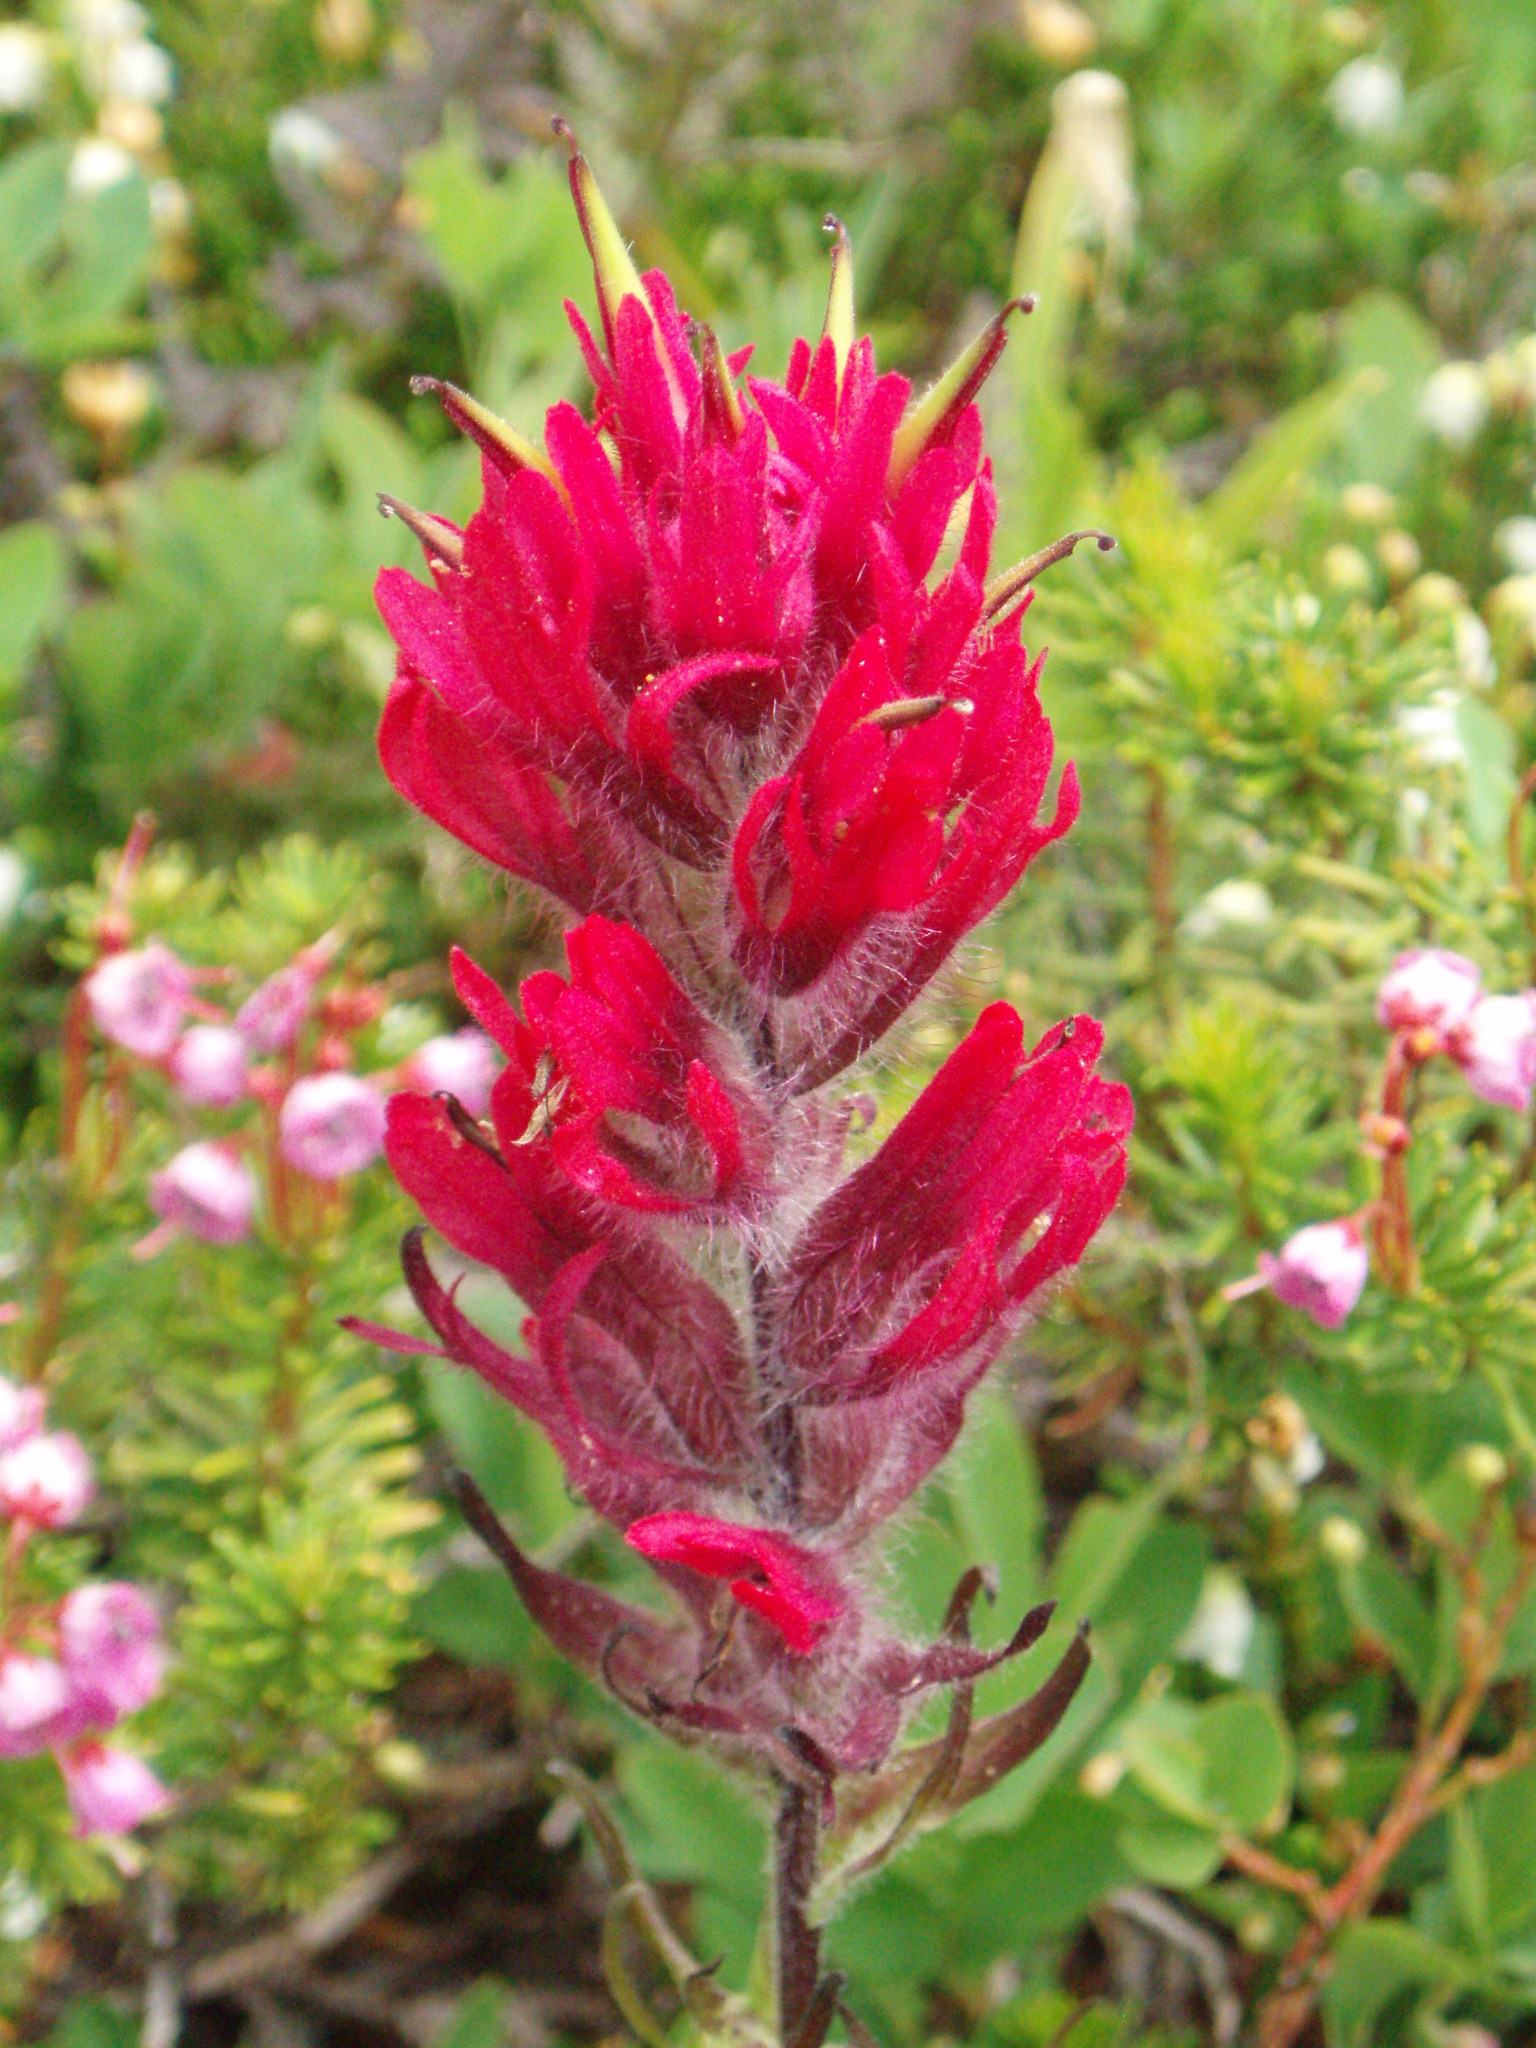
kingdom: Plantae
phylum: Tracheophyta
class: Magnoliopsida
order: Lamiales
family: Orobanchaceae
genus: Castilleja
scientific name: Castilleja parviflora
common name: Mountain paintbrush
